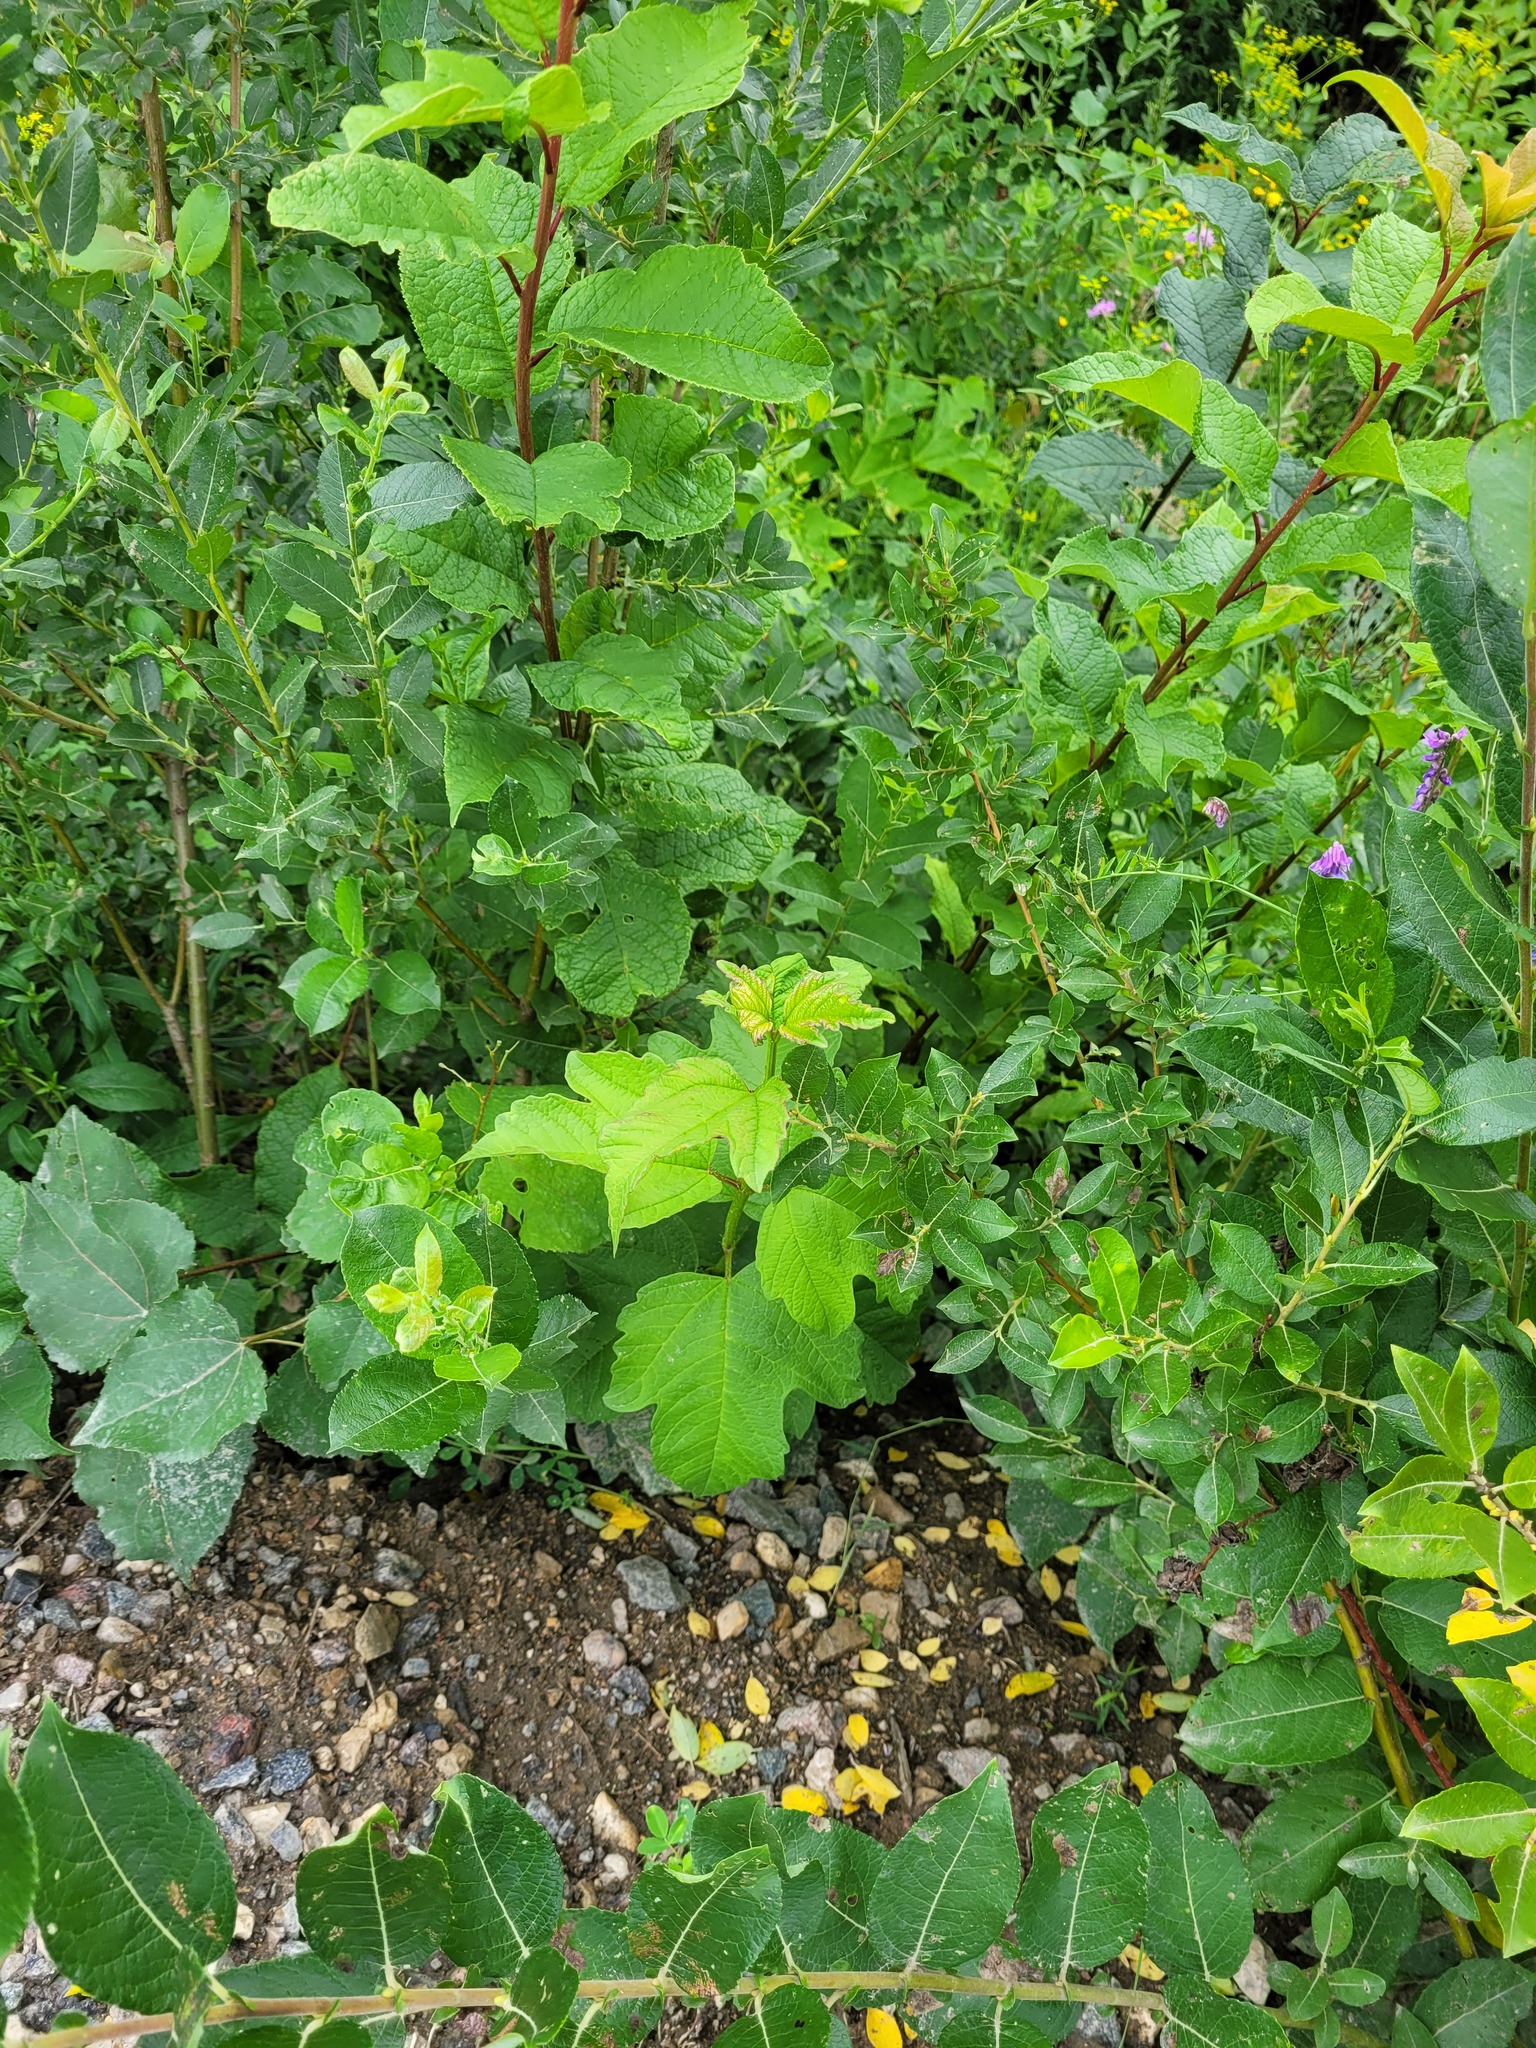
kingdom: Plantae
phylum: Tracheophyta
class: Magnoliopsida
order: Dipsacales
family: Viburnaceae
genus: Viburnum
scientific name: Viburnum opulus
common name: Guelder-rose
